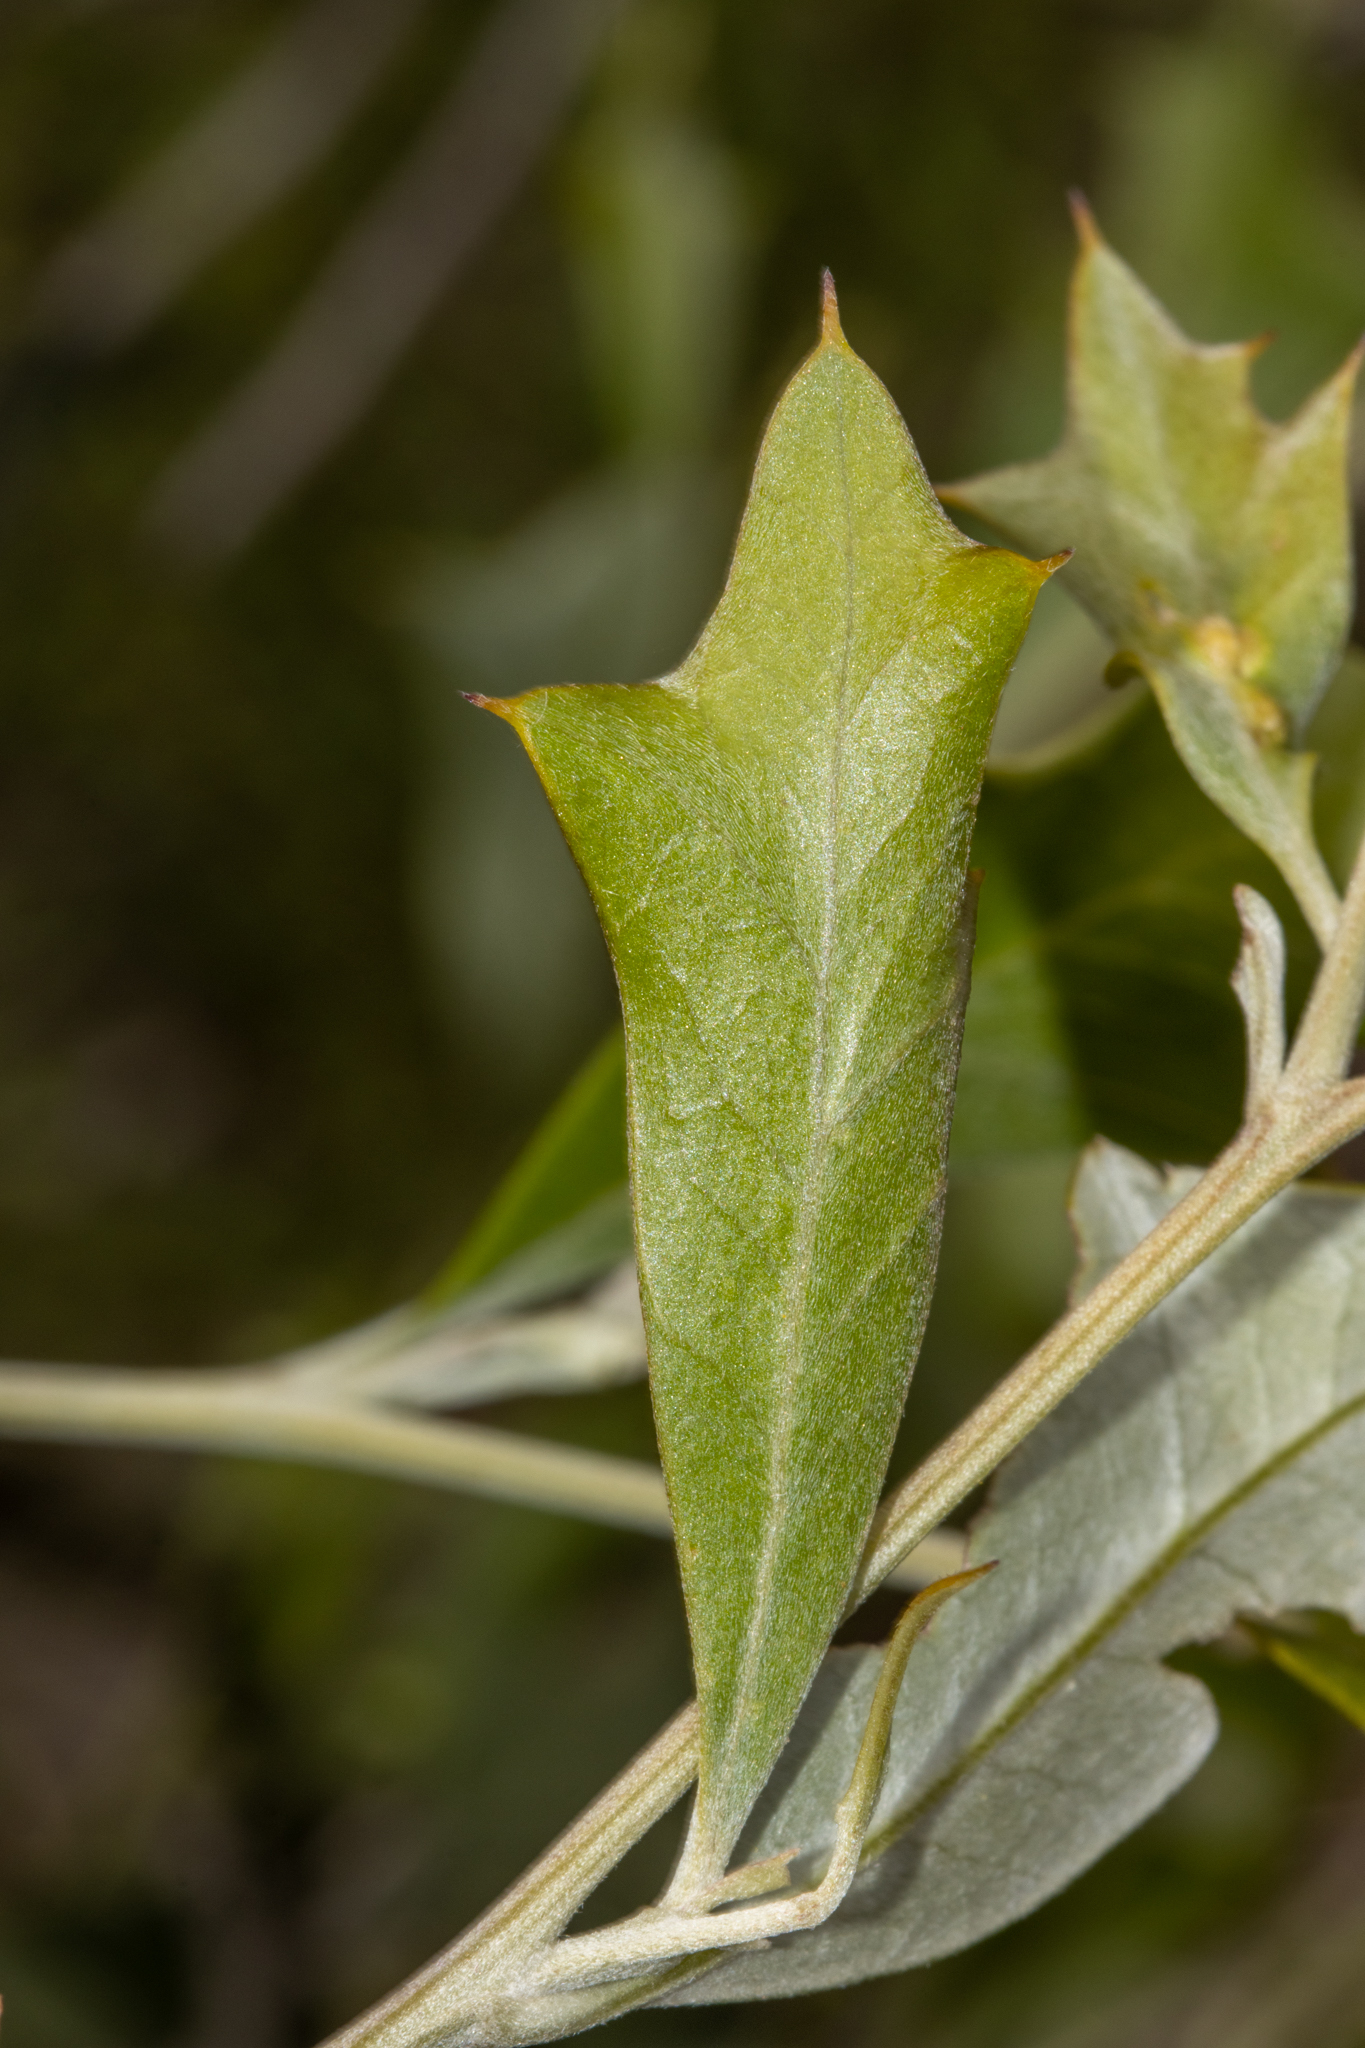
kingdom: Plantae
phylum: Tracheophyta
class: Magnoliopsida
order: Proteales
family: Proteaceae
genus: Grevillea
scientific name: Grevillea ilicifolia
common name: Holly grevillea
